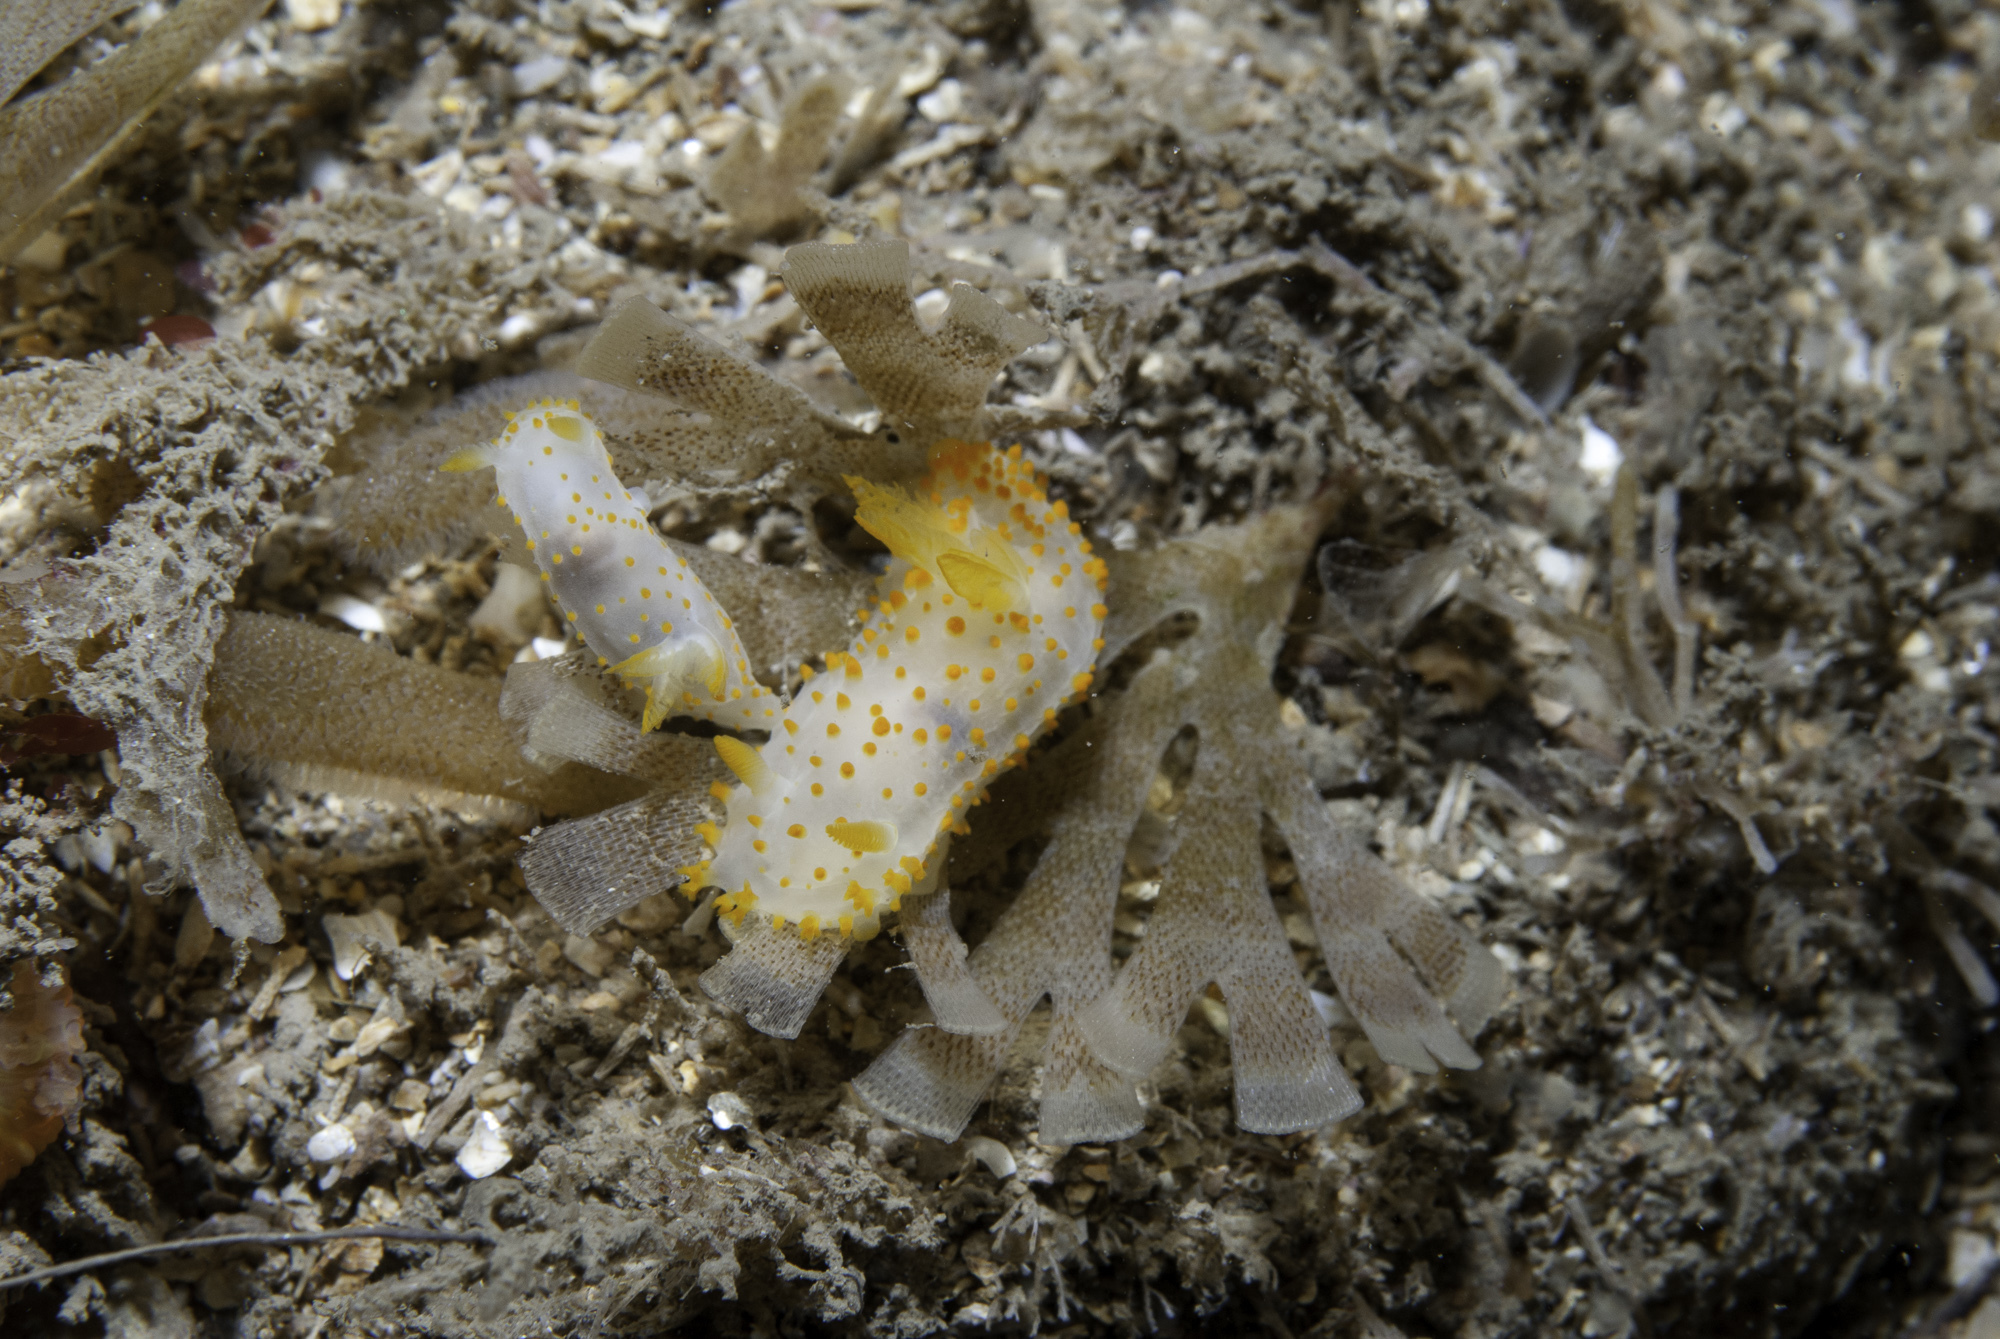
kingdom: Animalia
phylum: Mollusca
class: Gastropoda
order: Nudibranchia
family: Polyceridae
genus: Crimora
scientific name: Crimora papillata
